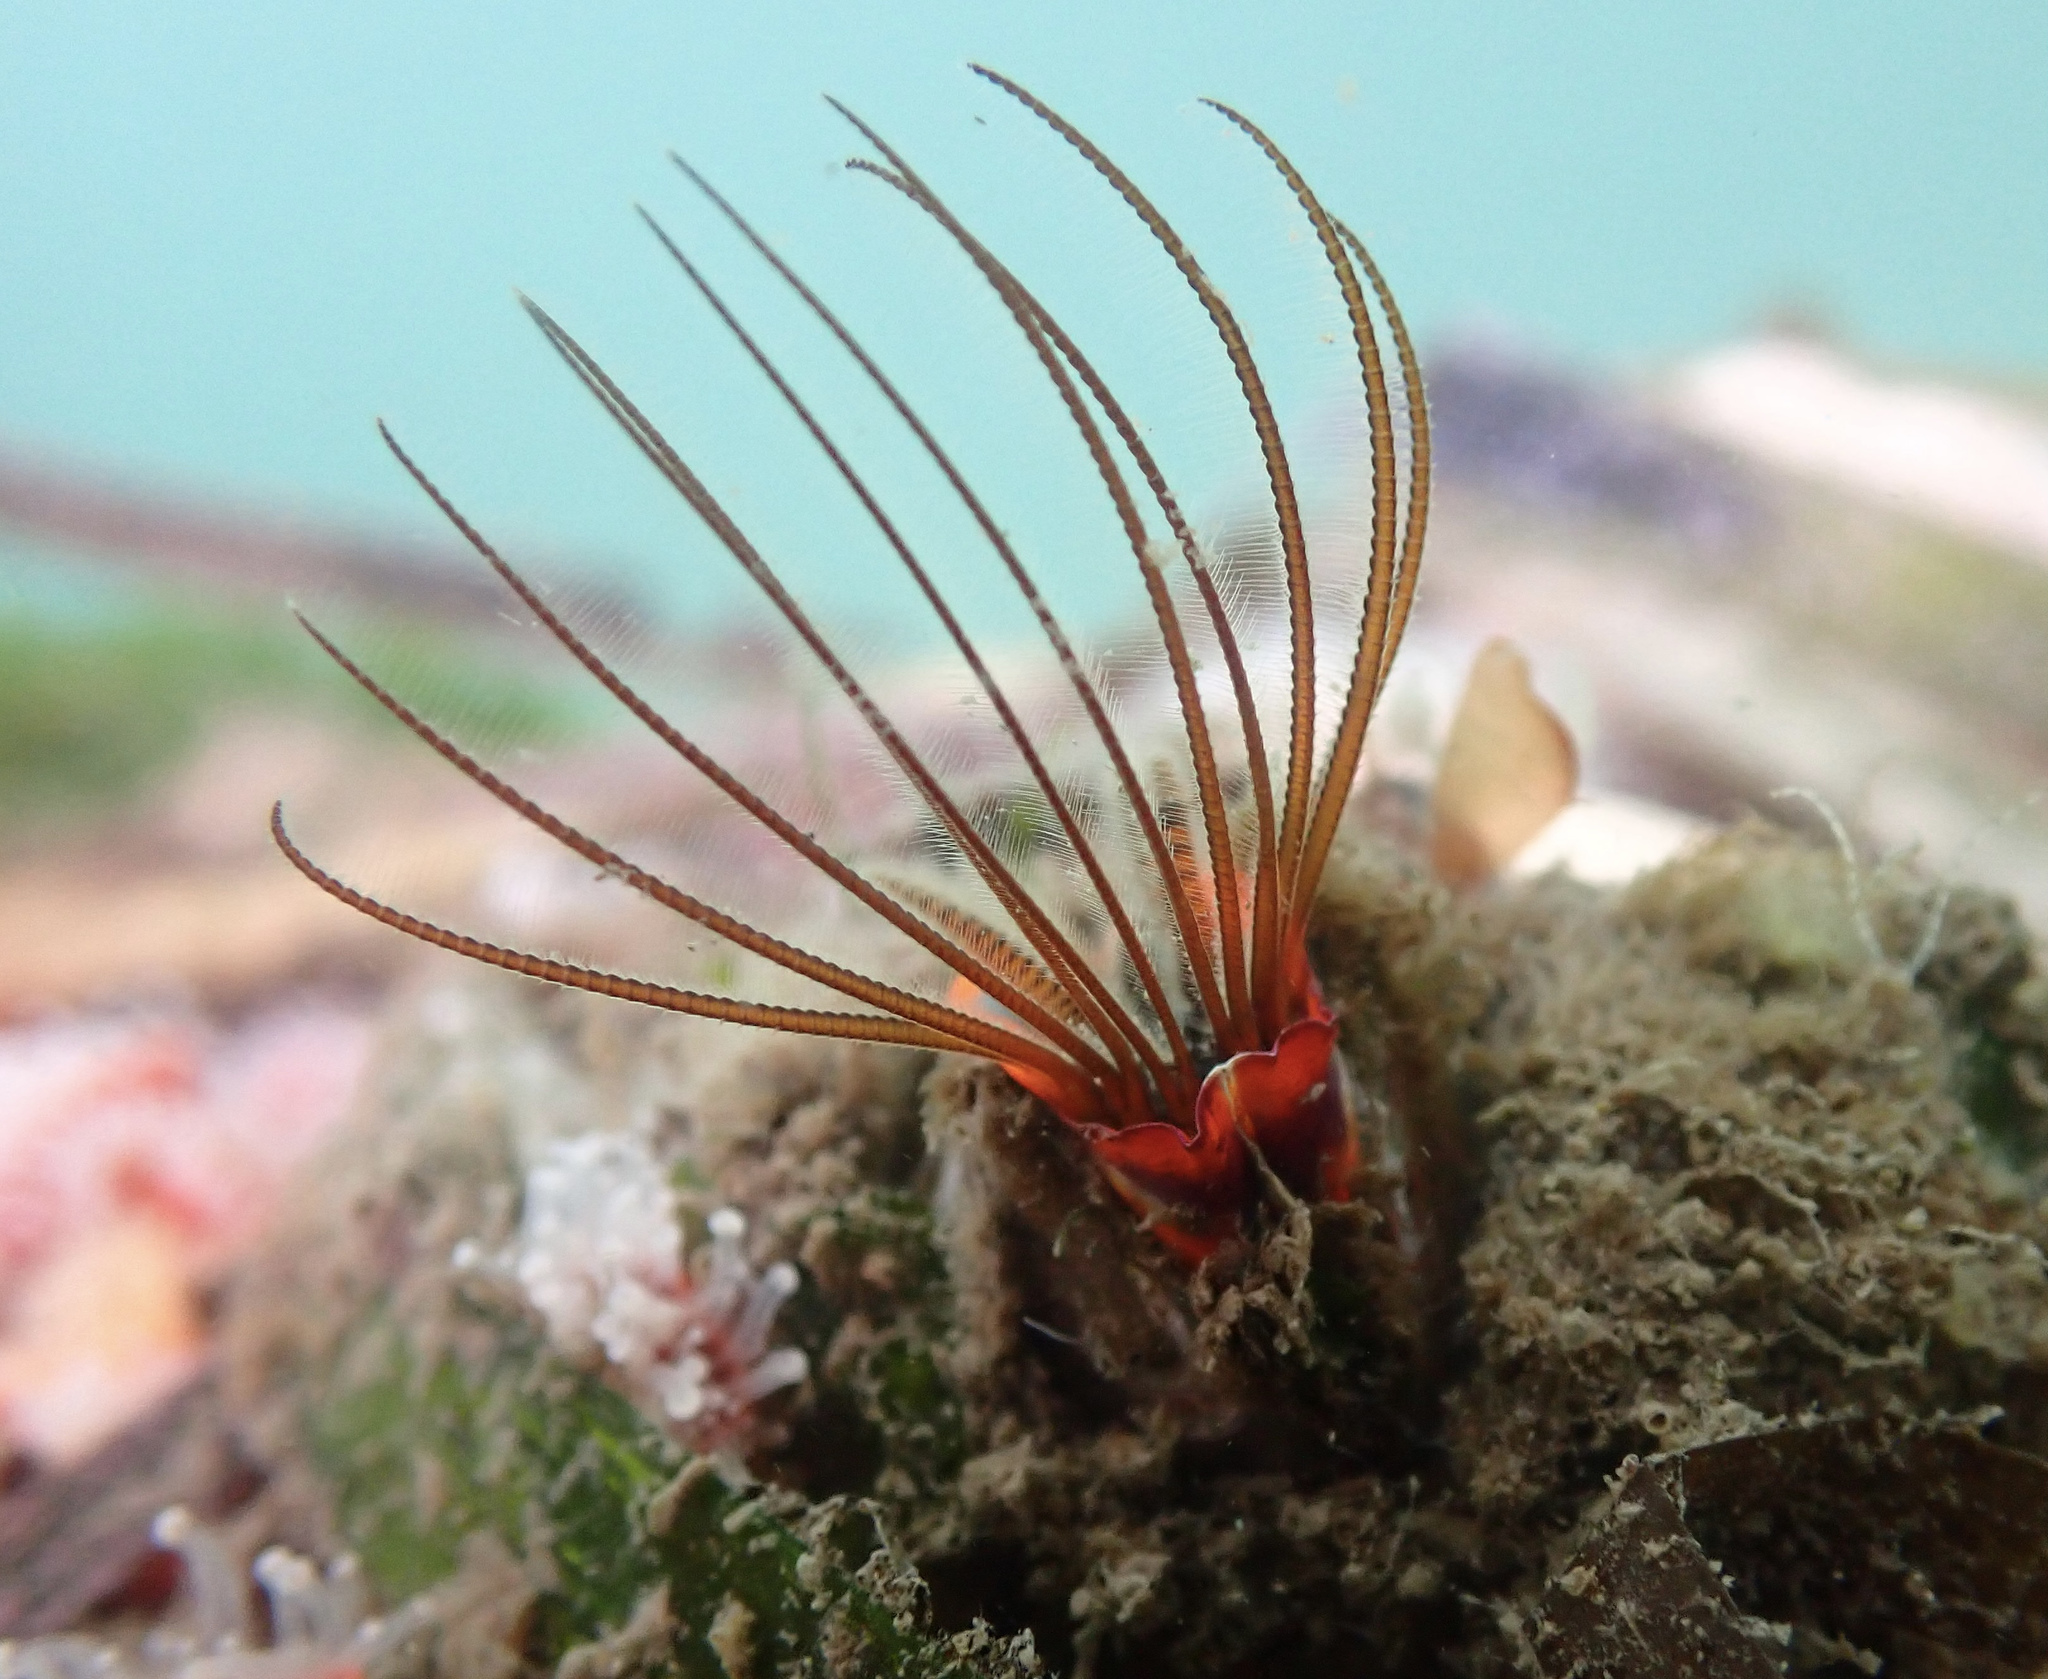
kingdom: Animalia
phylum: Arthropoda
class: Maxillopoda
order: Sessilia
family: Balanidae
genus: Balanus
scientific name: Balanus nubilus
